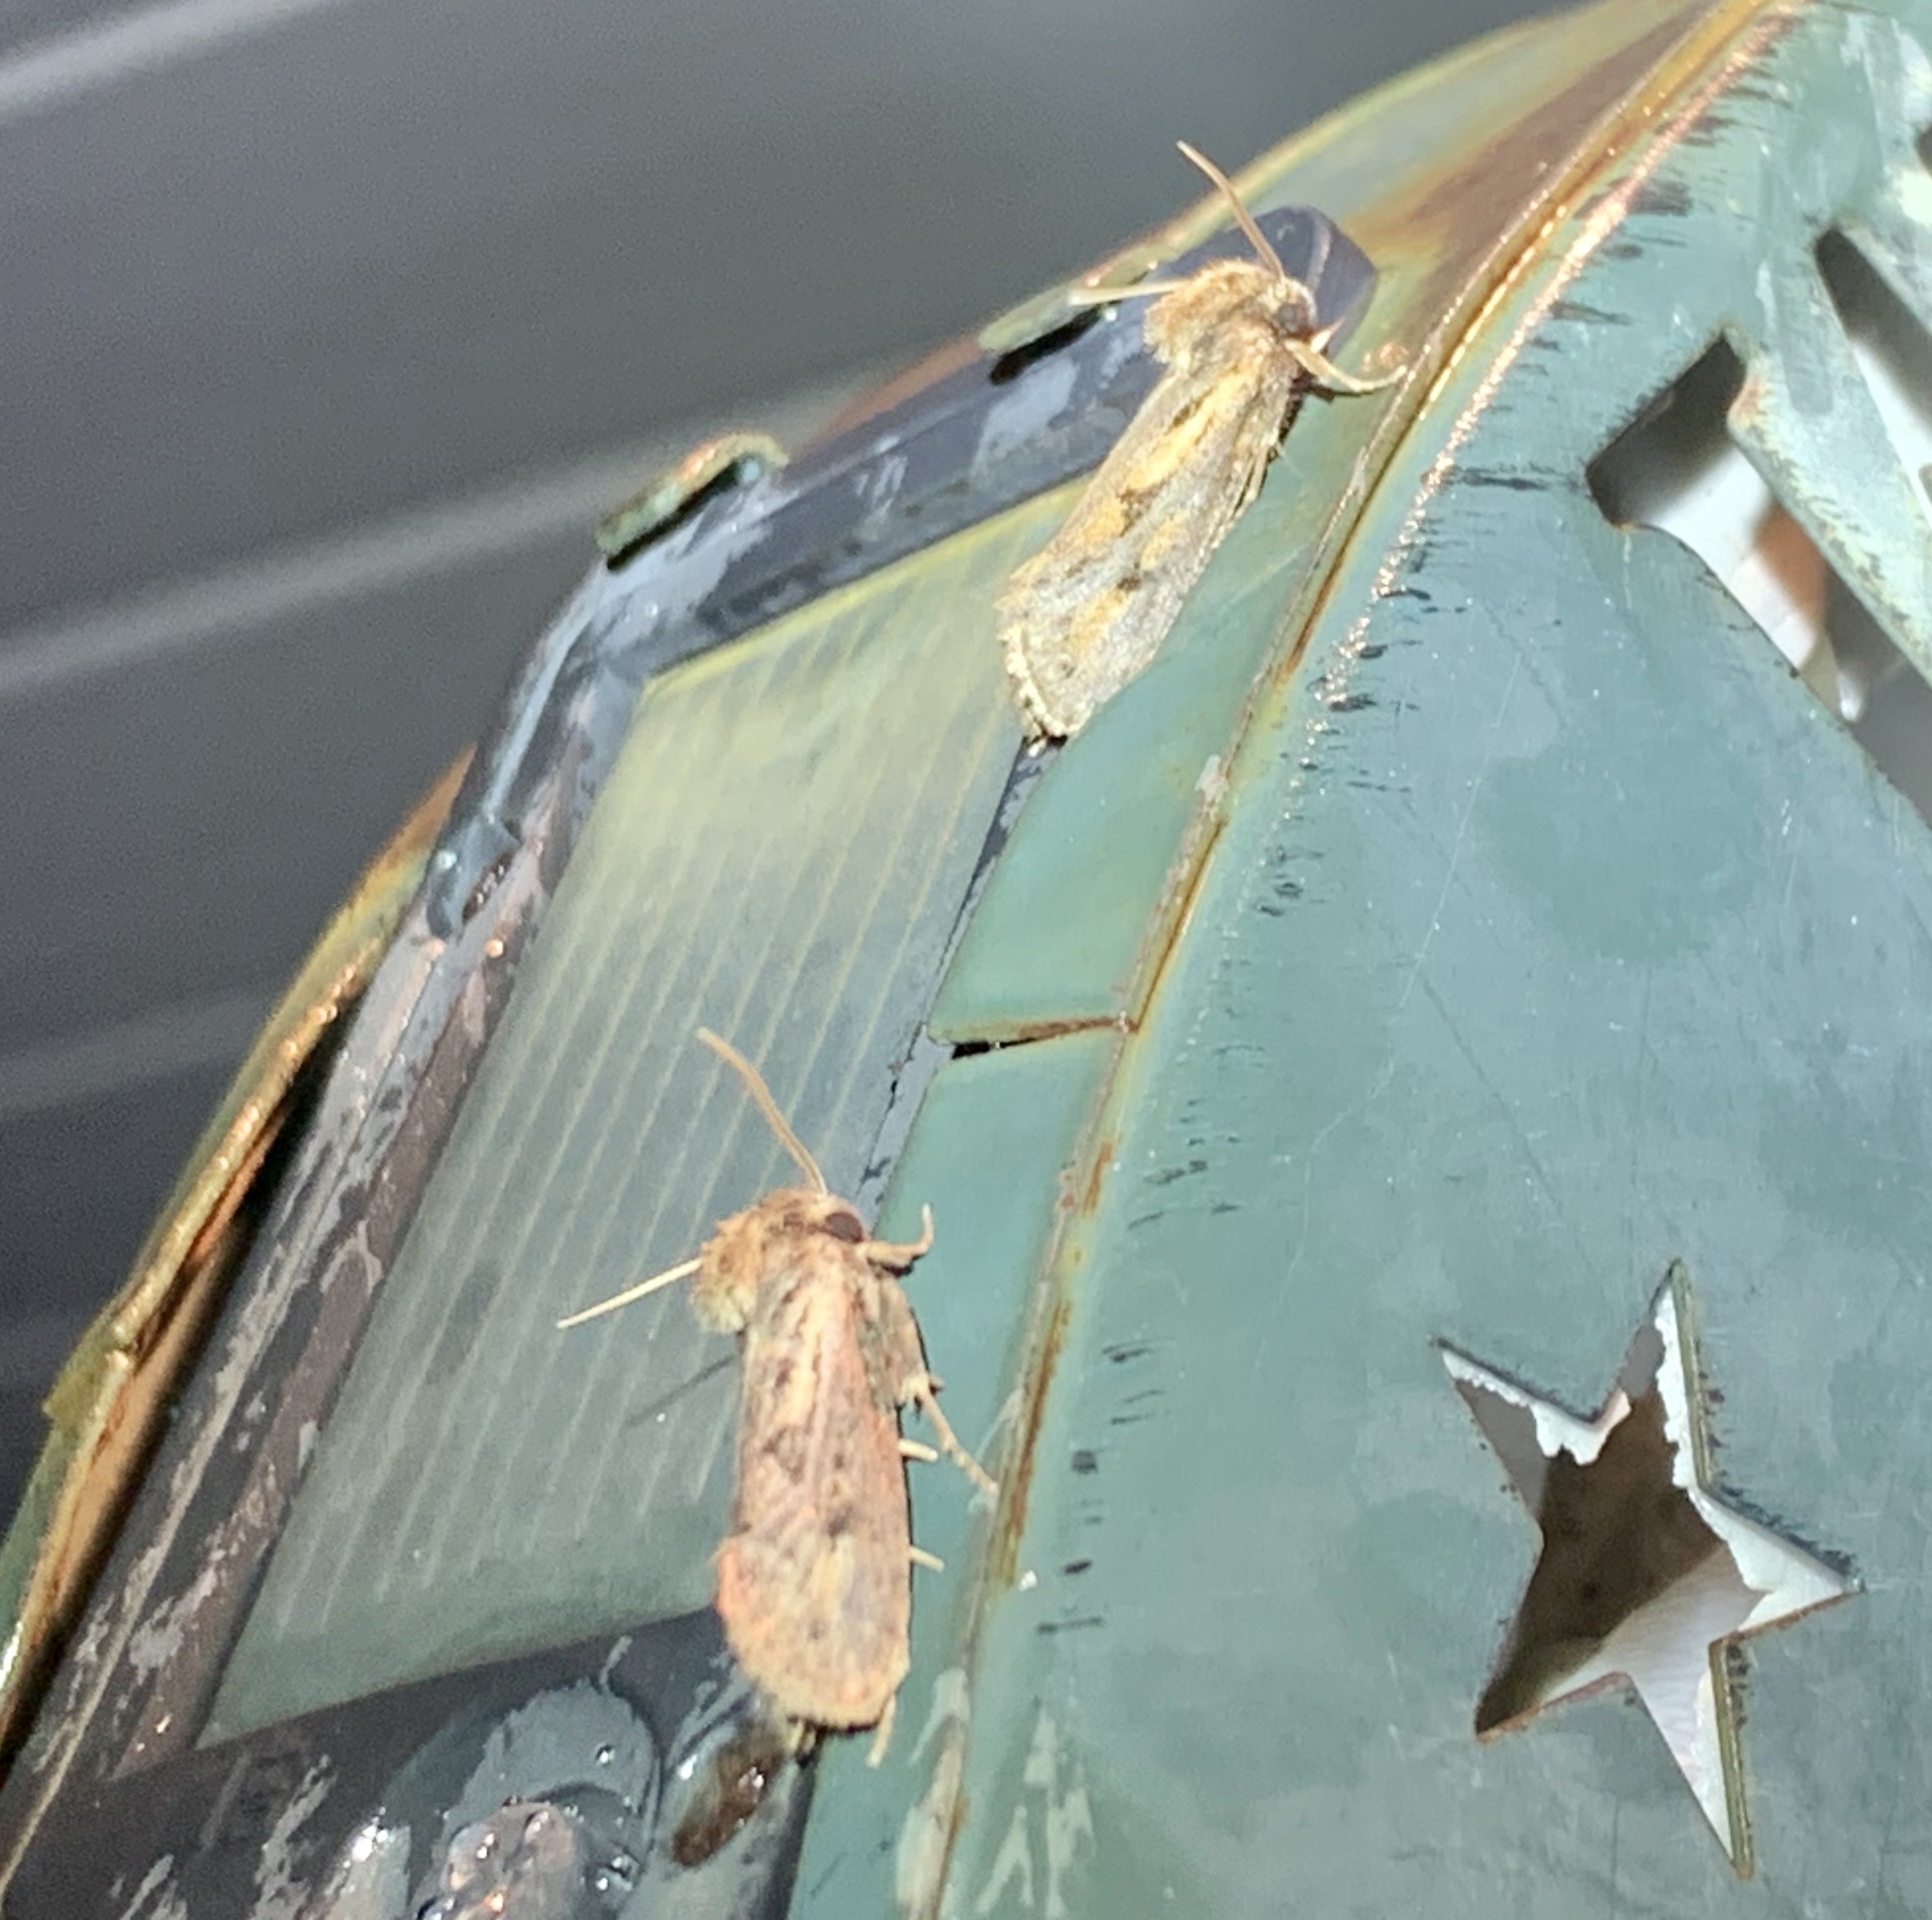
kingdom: Animalia
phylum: Arthropoda
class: Insecta
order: Lepidoptera
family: Tineidae
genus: Acrolophus
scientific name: Acrolophus popeanella
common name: Clemens' grass tubeworm moth
